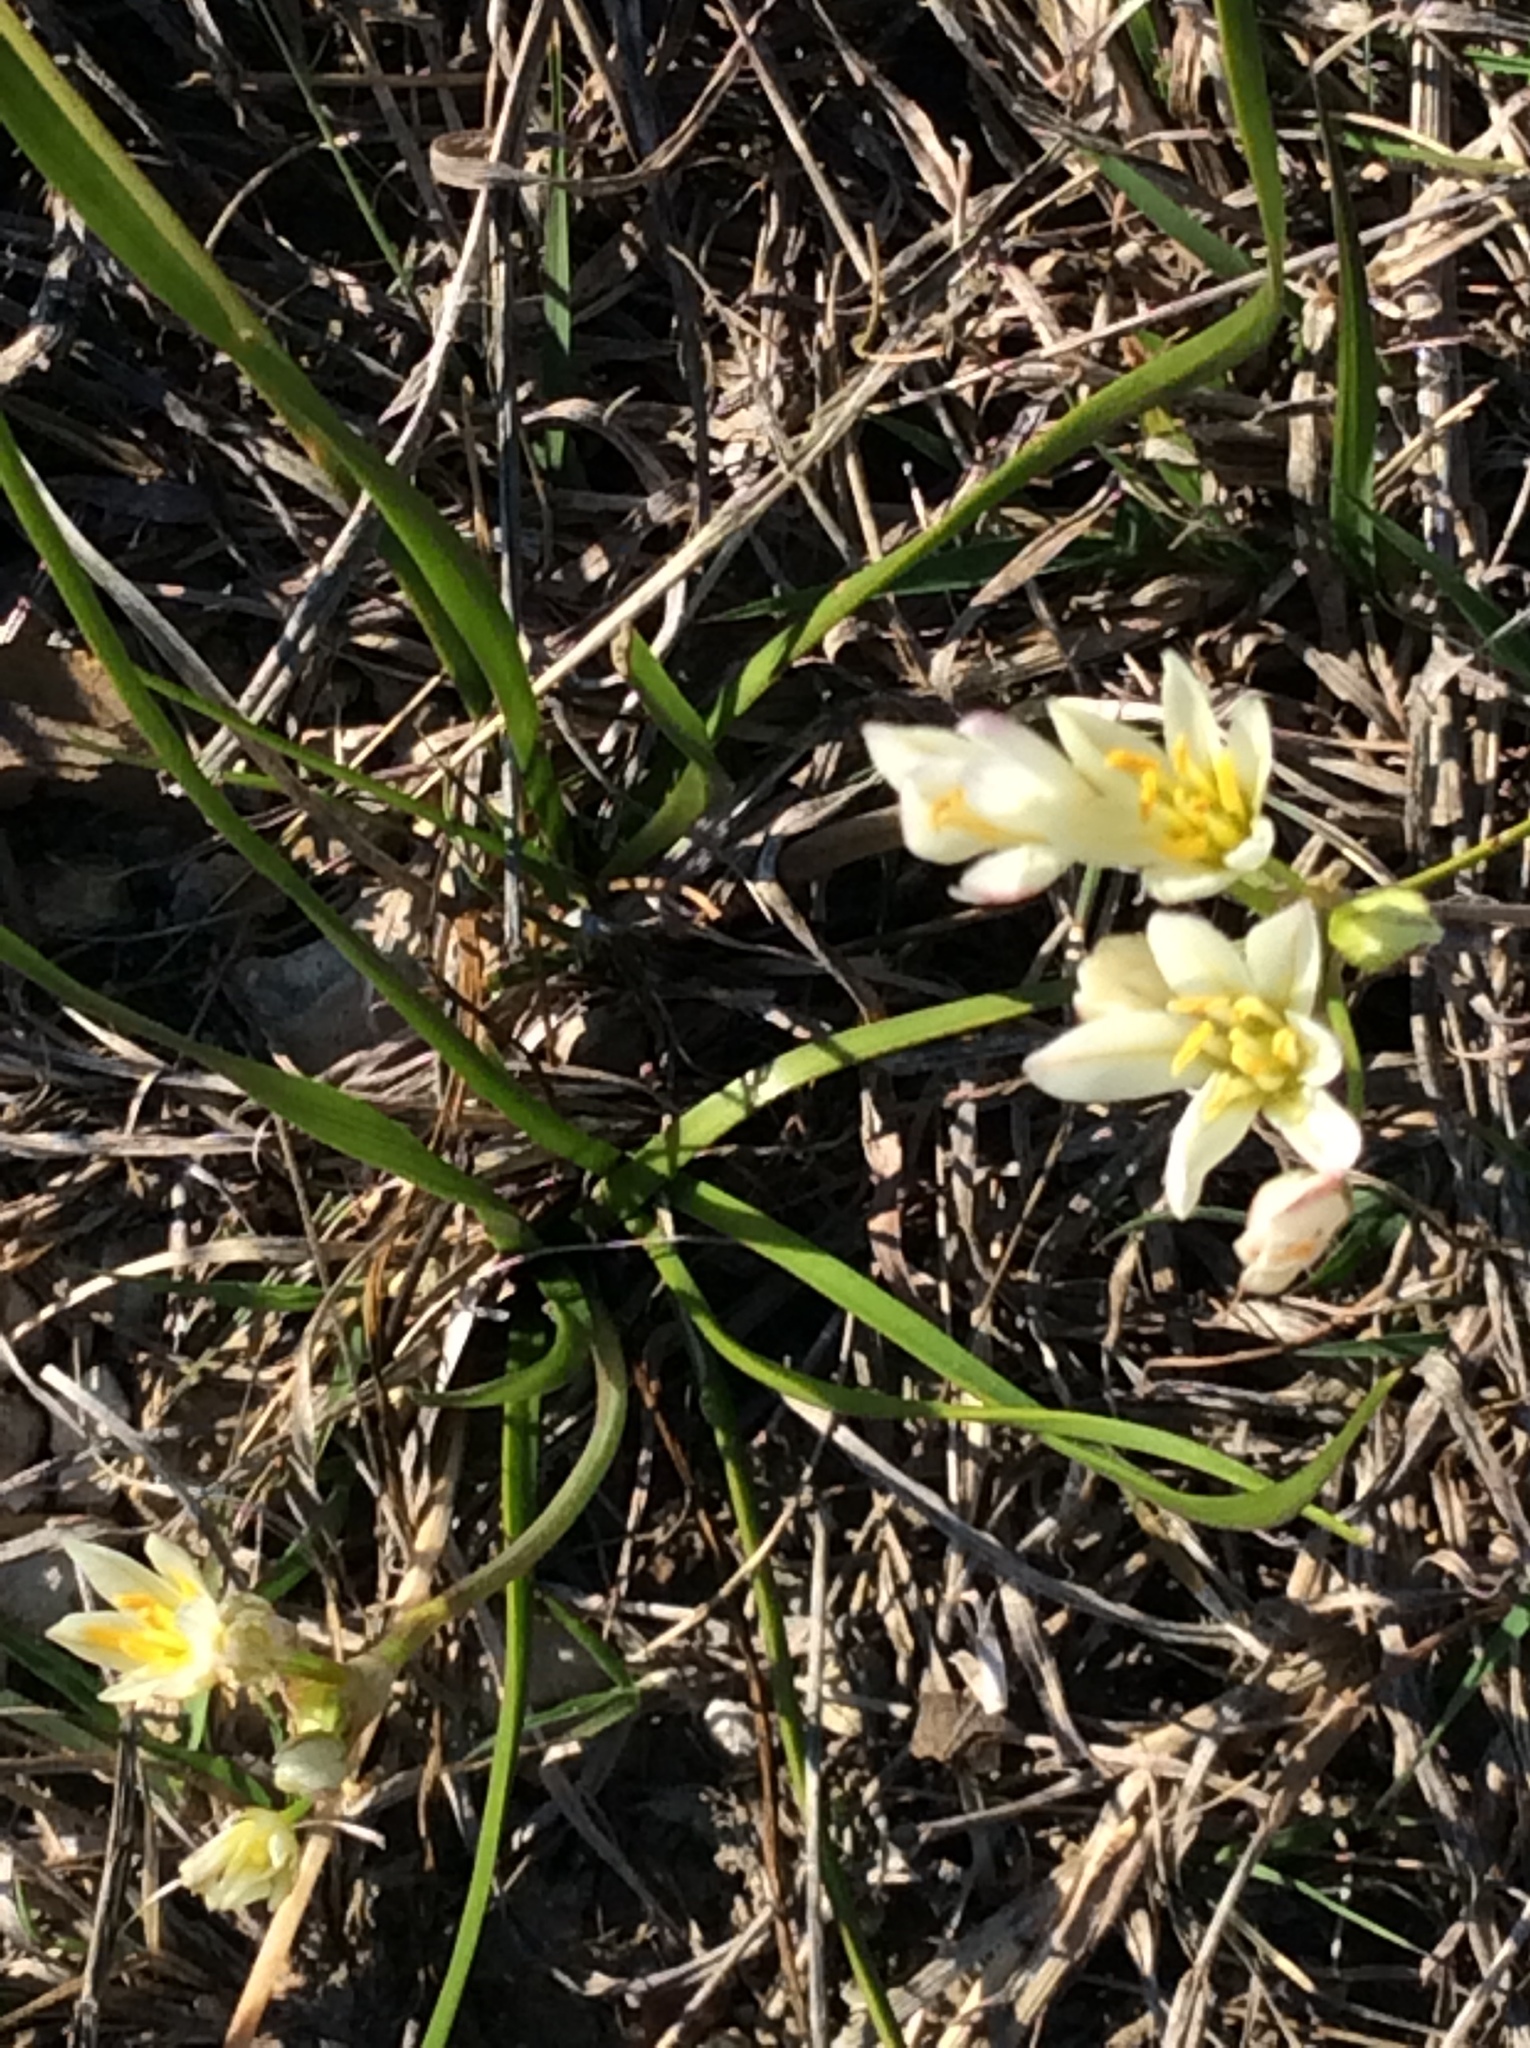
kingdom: Plantae
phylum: Tracheophyta
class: Liliopsida
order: Asparagales
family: Amaryllidaceae
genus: Nothoscordum
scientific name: Nothoscordum bivalve
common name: Crow-poison
